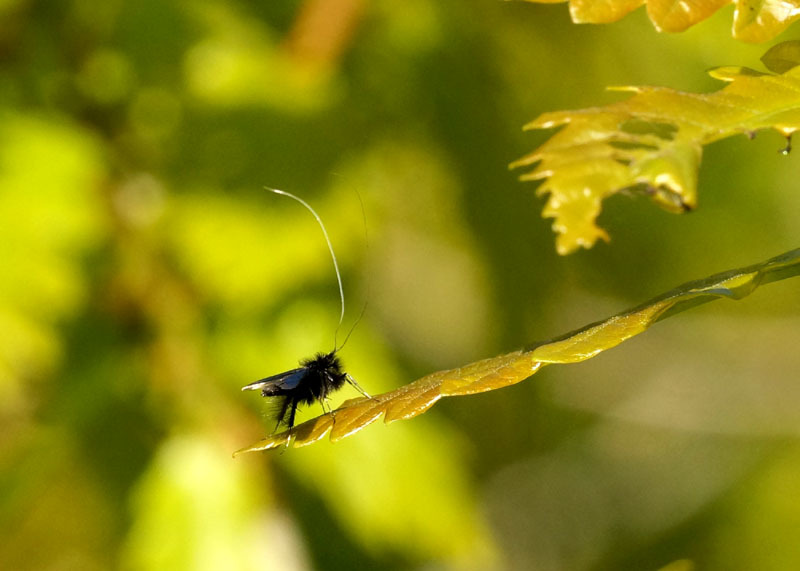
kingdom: Animalia
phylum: Arthropoda
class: Insecta
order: Lepidoptera
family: Adelidae
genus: Adela
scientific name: Adela viridella
